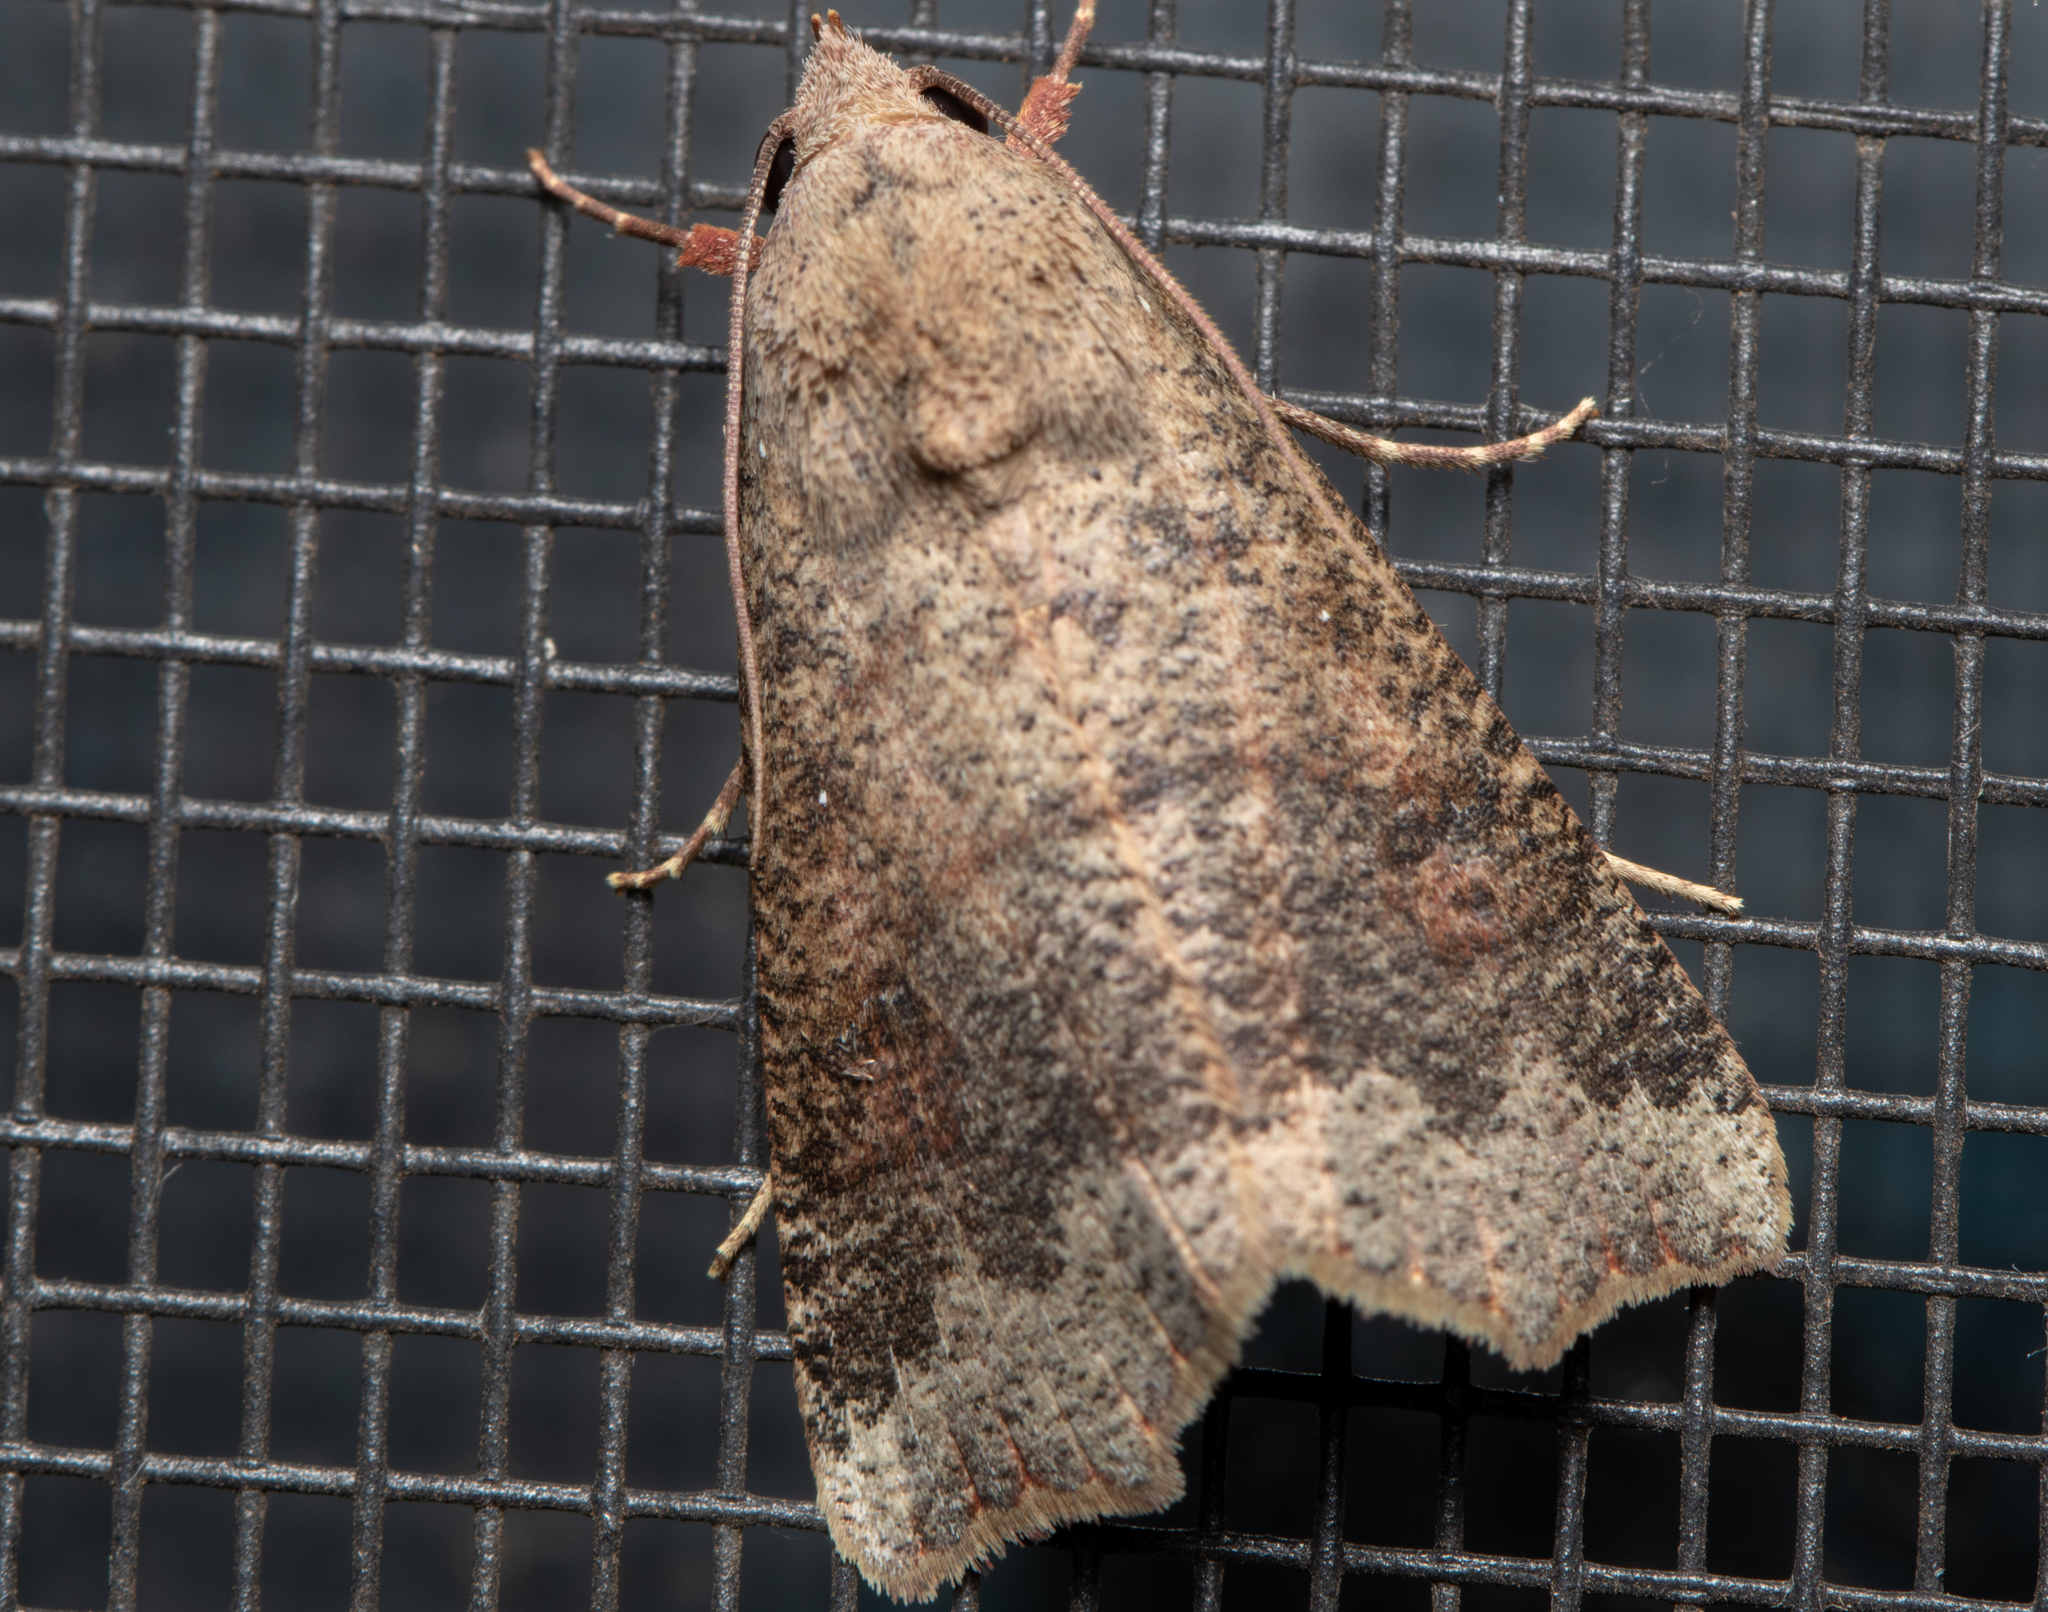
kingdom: Animalia
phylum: Arthropoda
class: Insecta
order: Lepidoptera
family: Erebidae
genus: Gonitis
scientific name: Gonitis involuta
